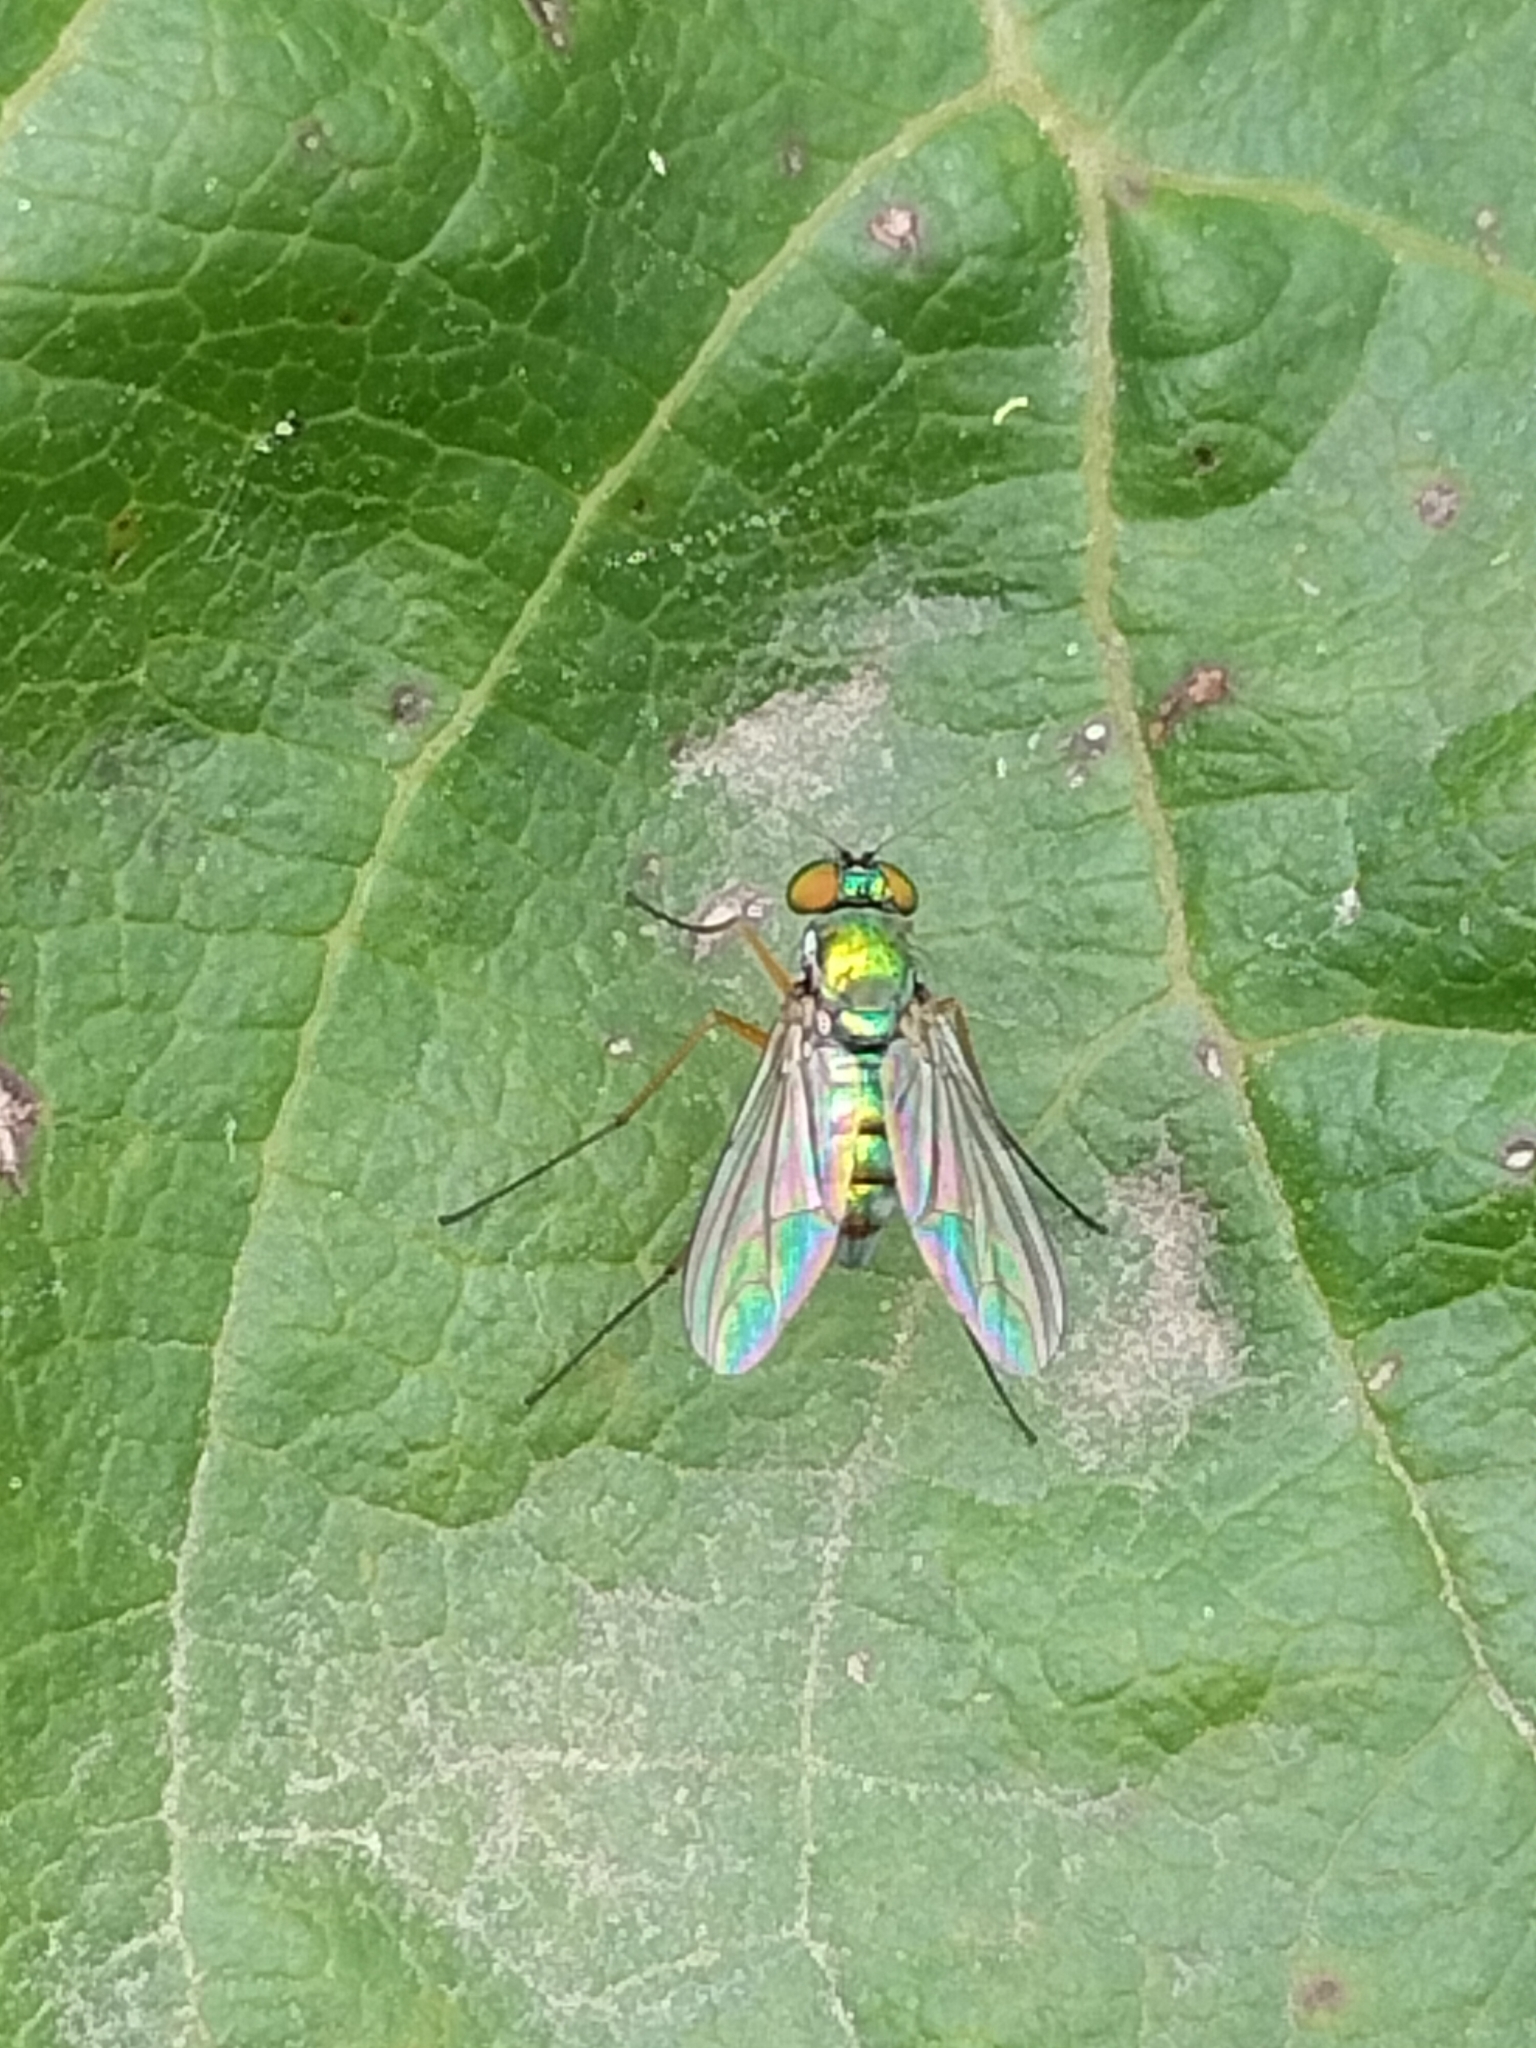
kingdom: Animalia
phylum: Arthropoda
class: Insecta
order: Diptera
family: Dolichopodidae
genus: Parentia
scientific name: Parentia dispar
